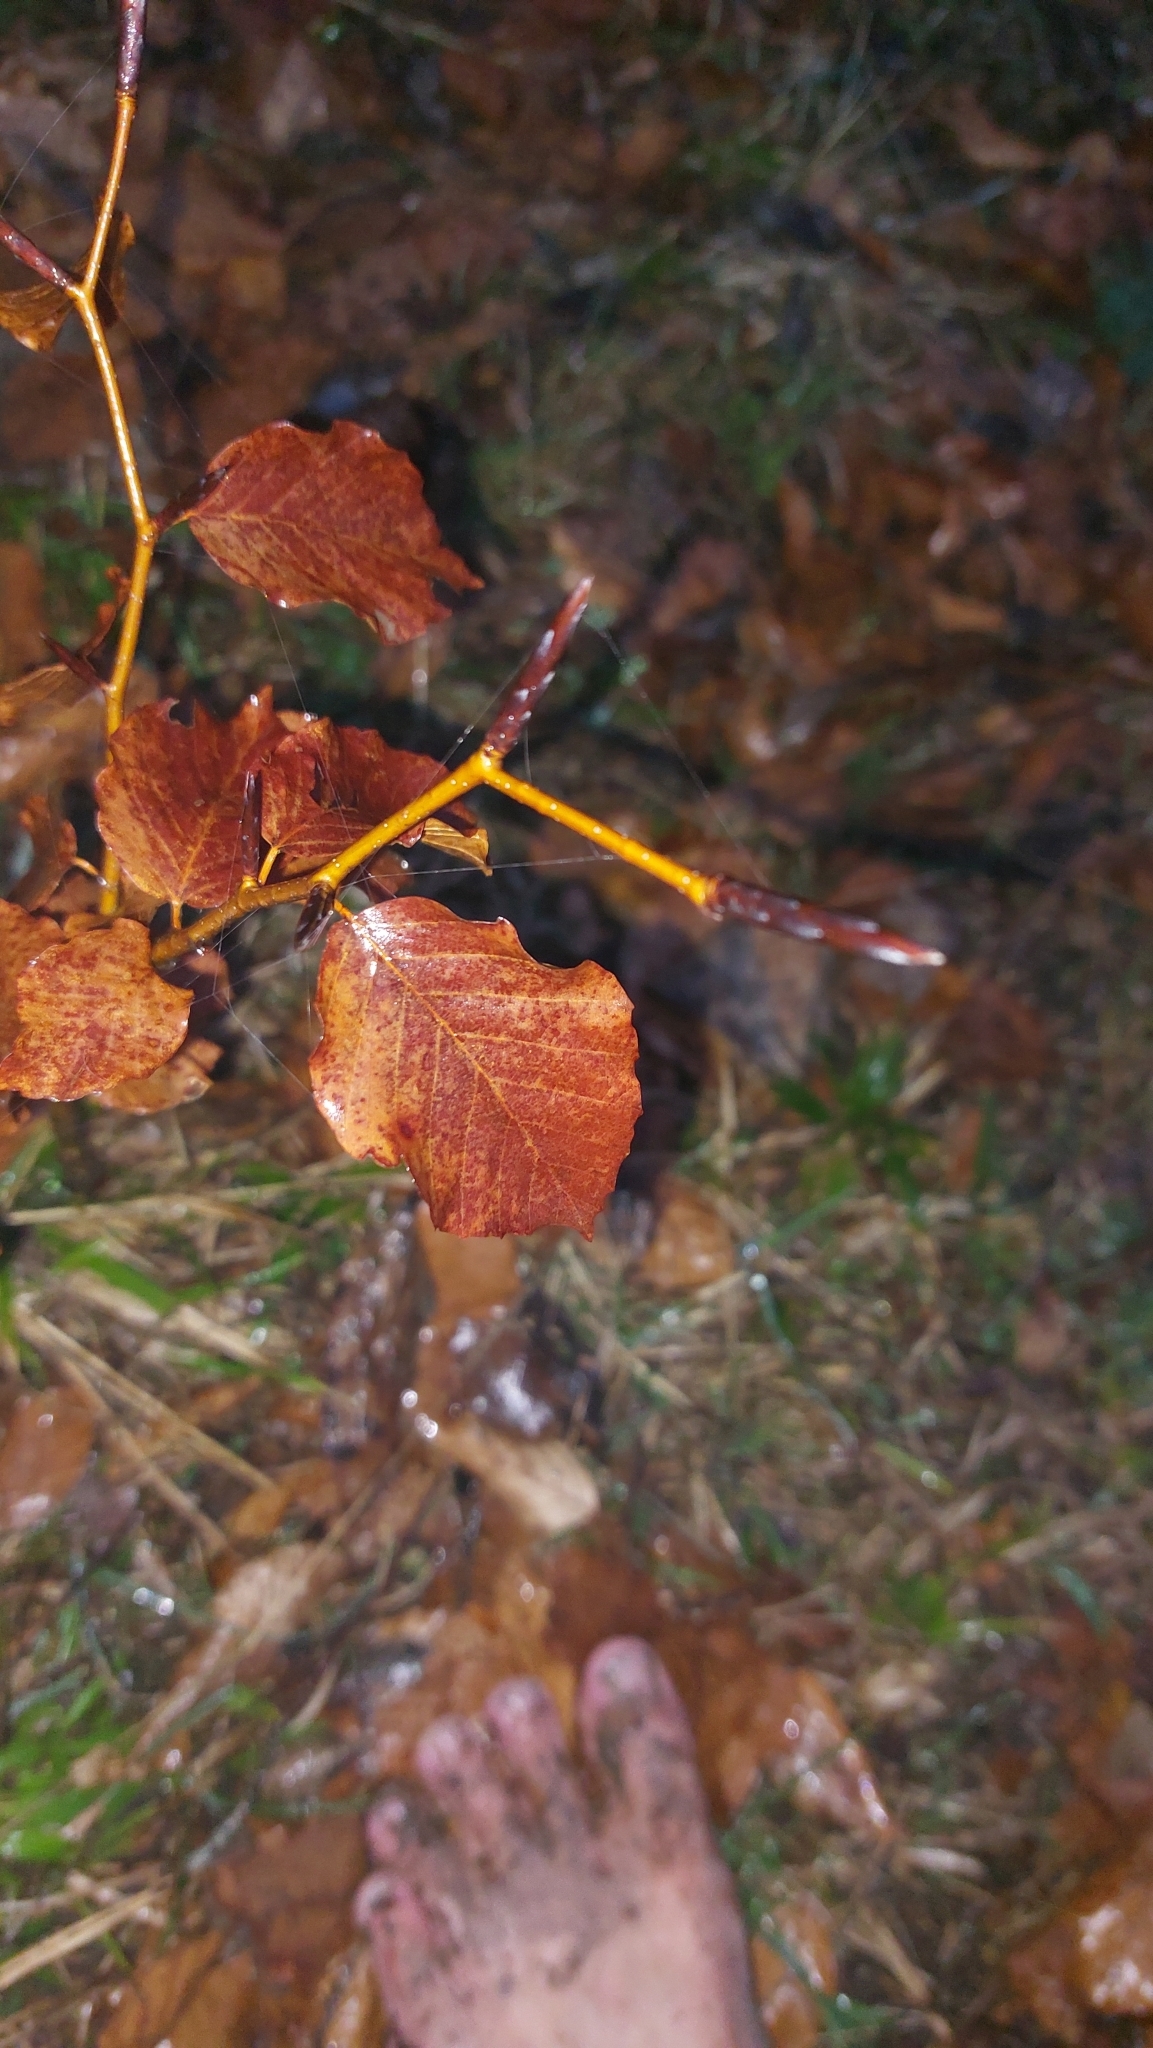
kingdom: Plantae
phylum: Tracheophyta
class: Magnoliopsida
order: Fagales
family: Fagaceae
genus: Fagus
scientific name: Fagus sylvatica
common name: Beech
